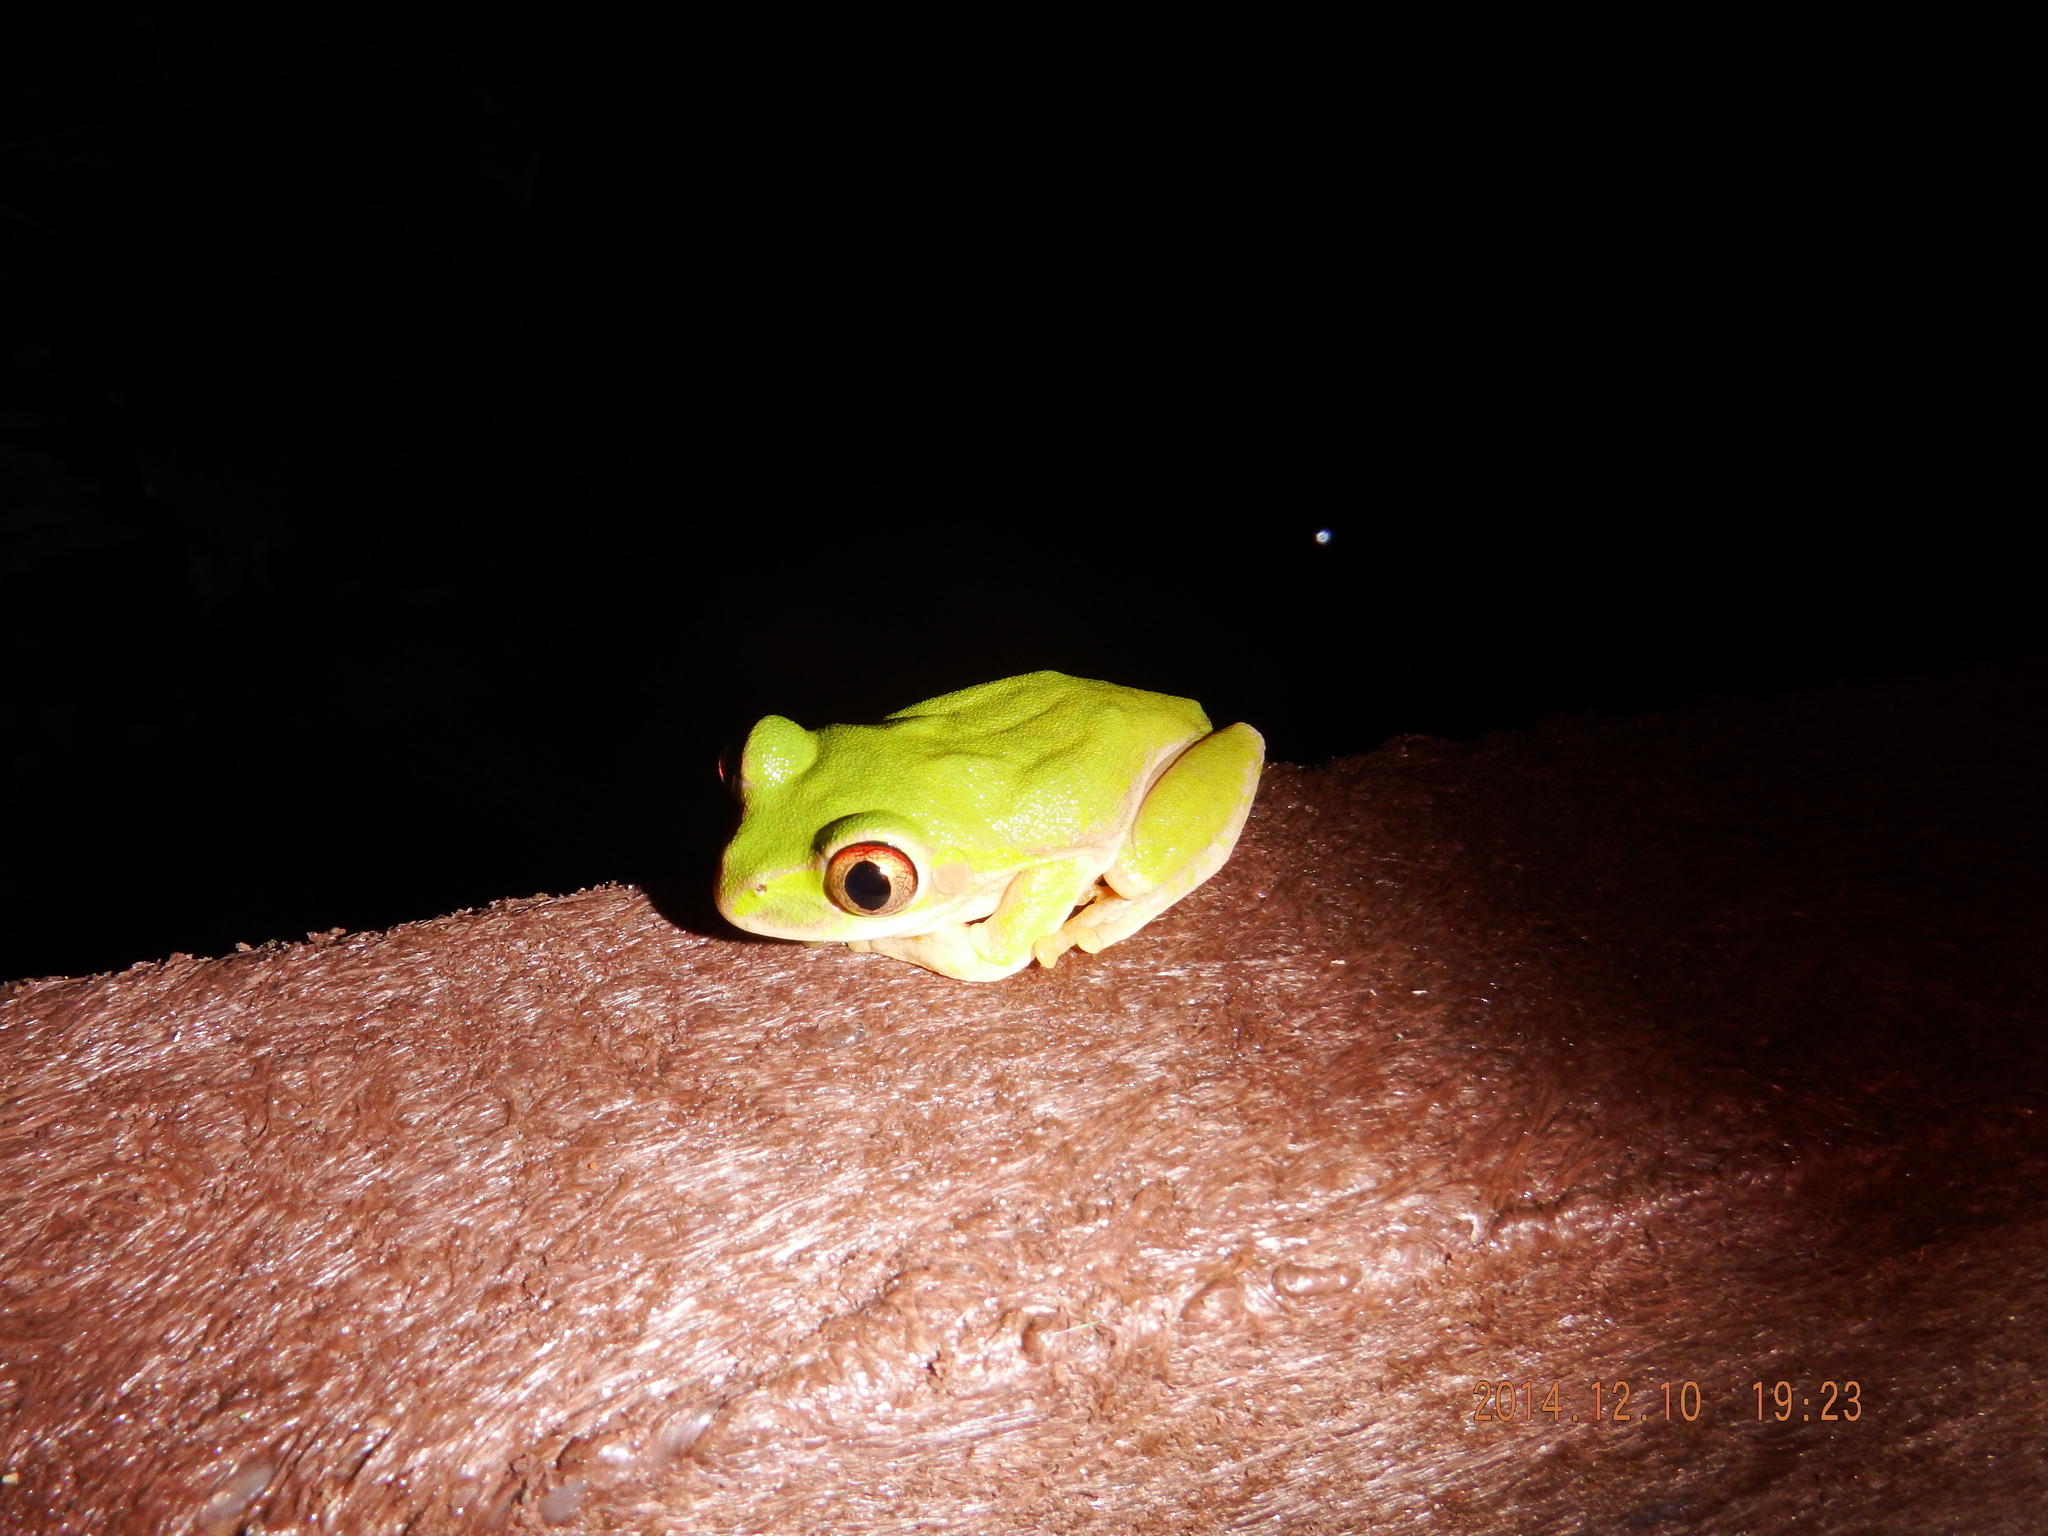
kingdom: Animalia
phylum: Chordata
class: Amphibia
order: Anura
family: Arthroleptidae
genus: Leptopelis
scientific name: Leptopelis natalensis
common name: Natal tree frog
